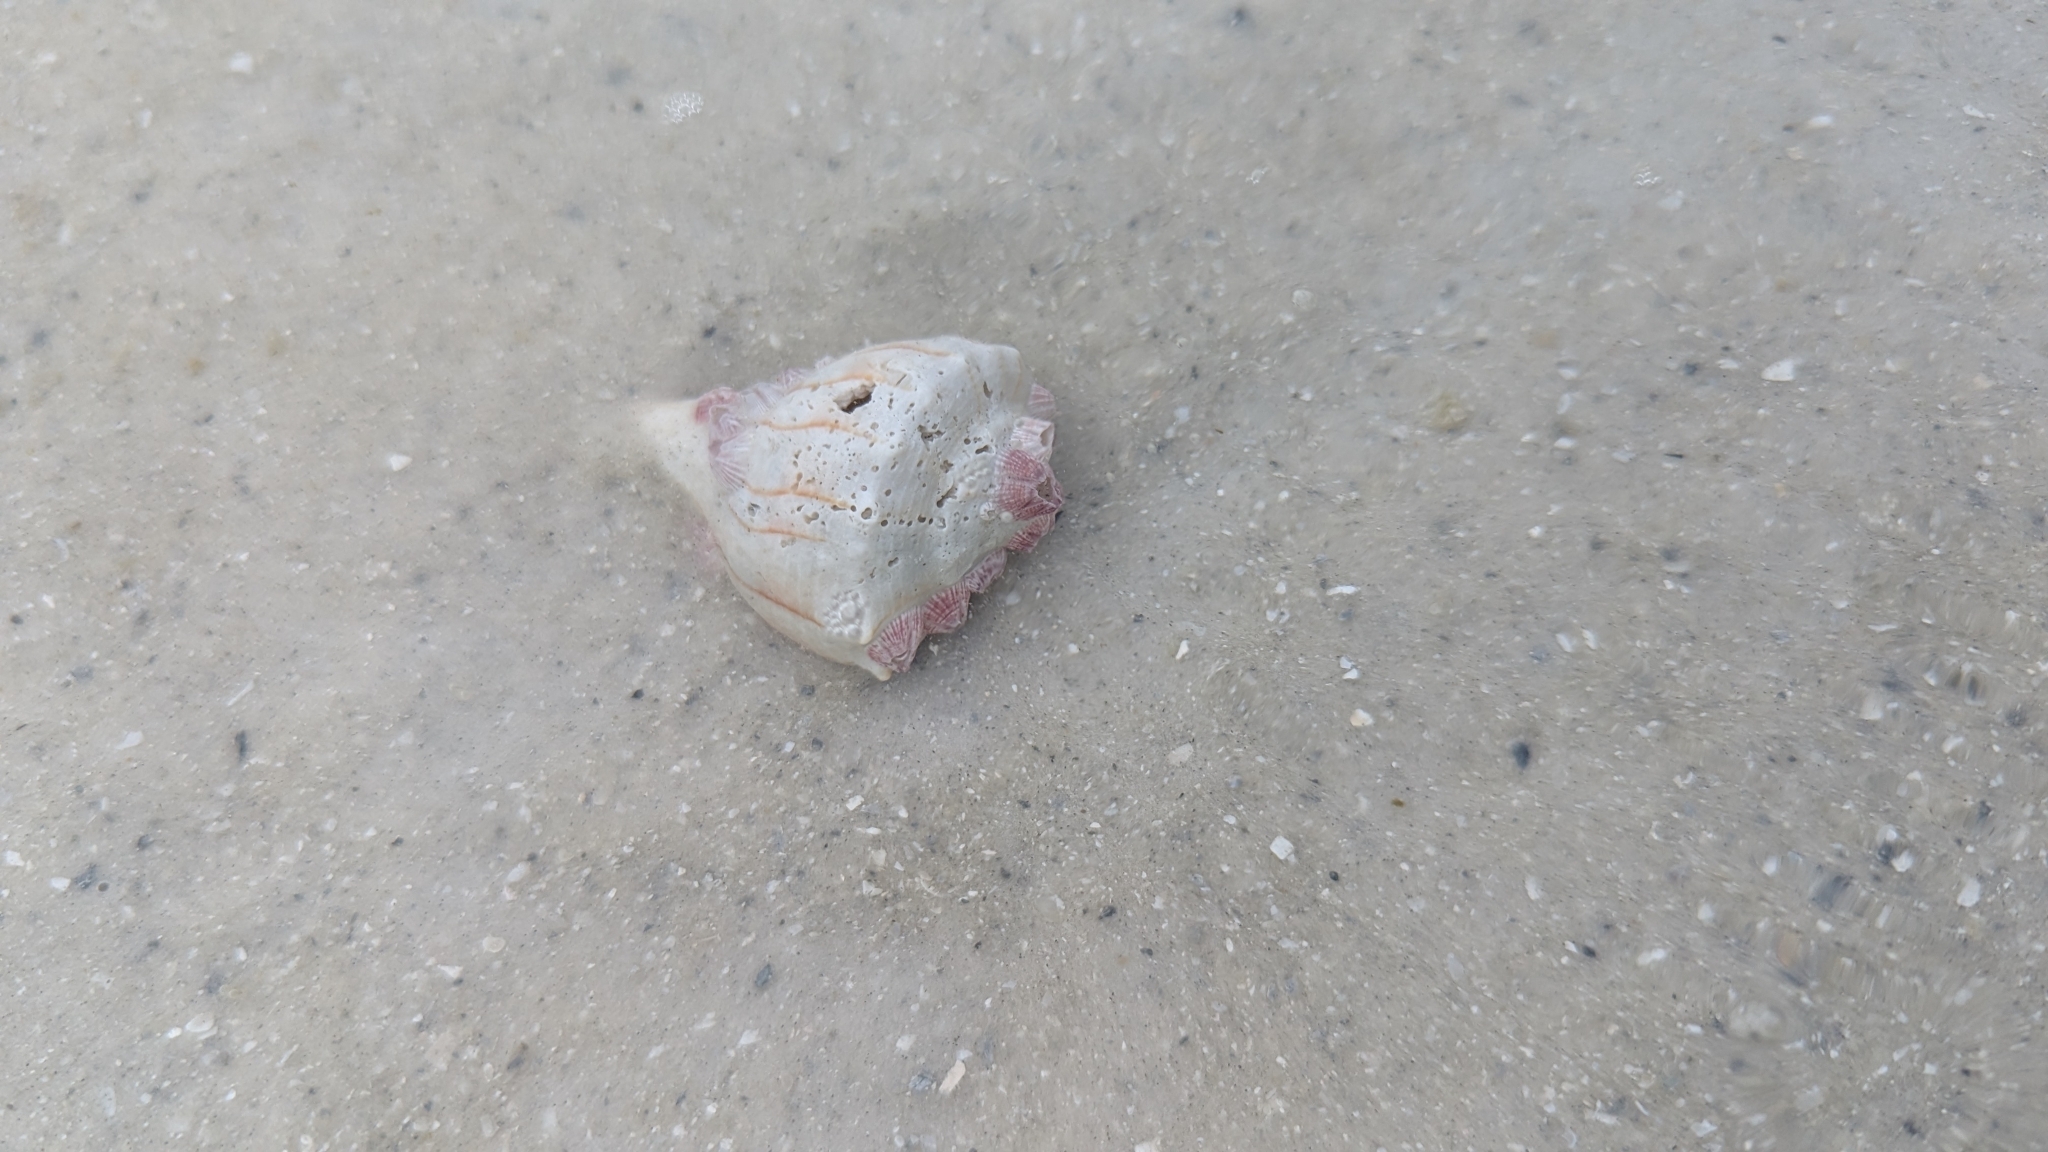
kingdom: Animalia
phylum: Mollusca
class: Gastropoda
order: Neogastropoda
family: Busyconidae
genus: Sinistrofulgur
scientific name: Sinistrofulgur sinistrum
